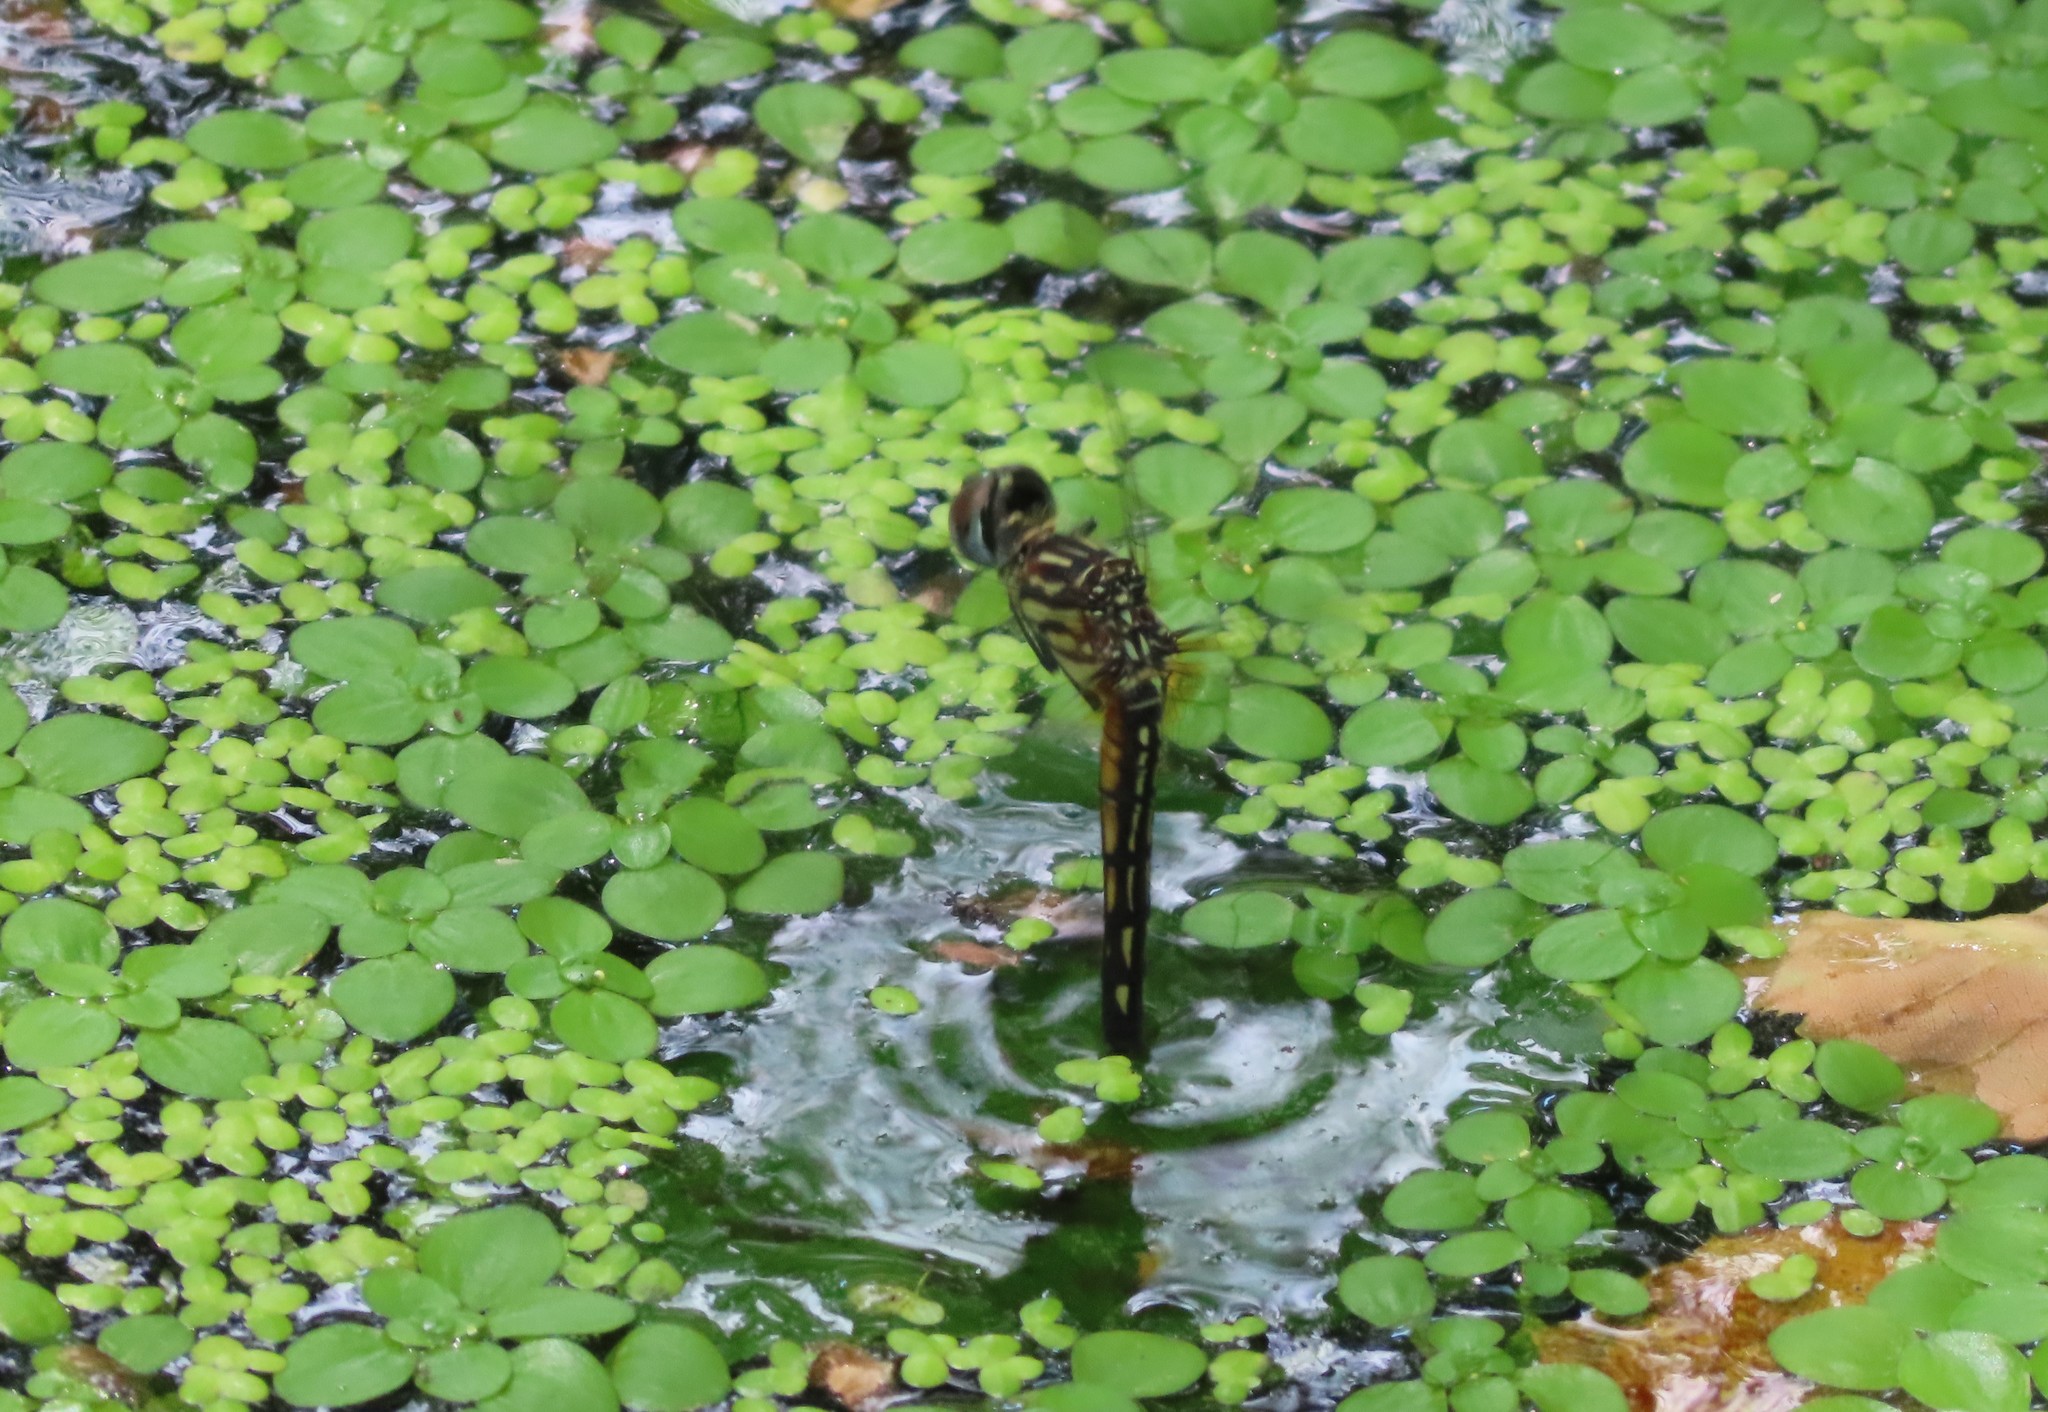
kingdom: Animalia
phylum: Arthropoda
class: Insecta
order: Odonata
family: Libellulidae
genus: Pachydiplax
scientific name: Pachydiplax longipennis
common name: Blue dasher
